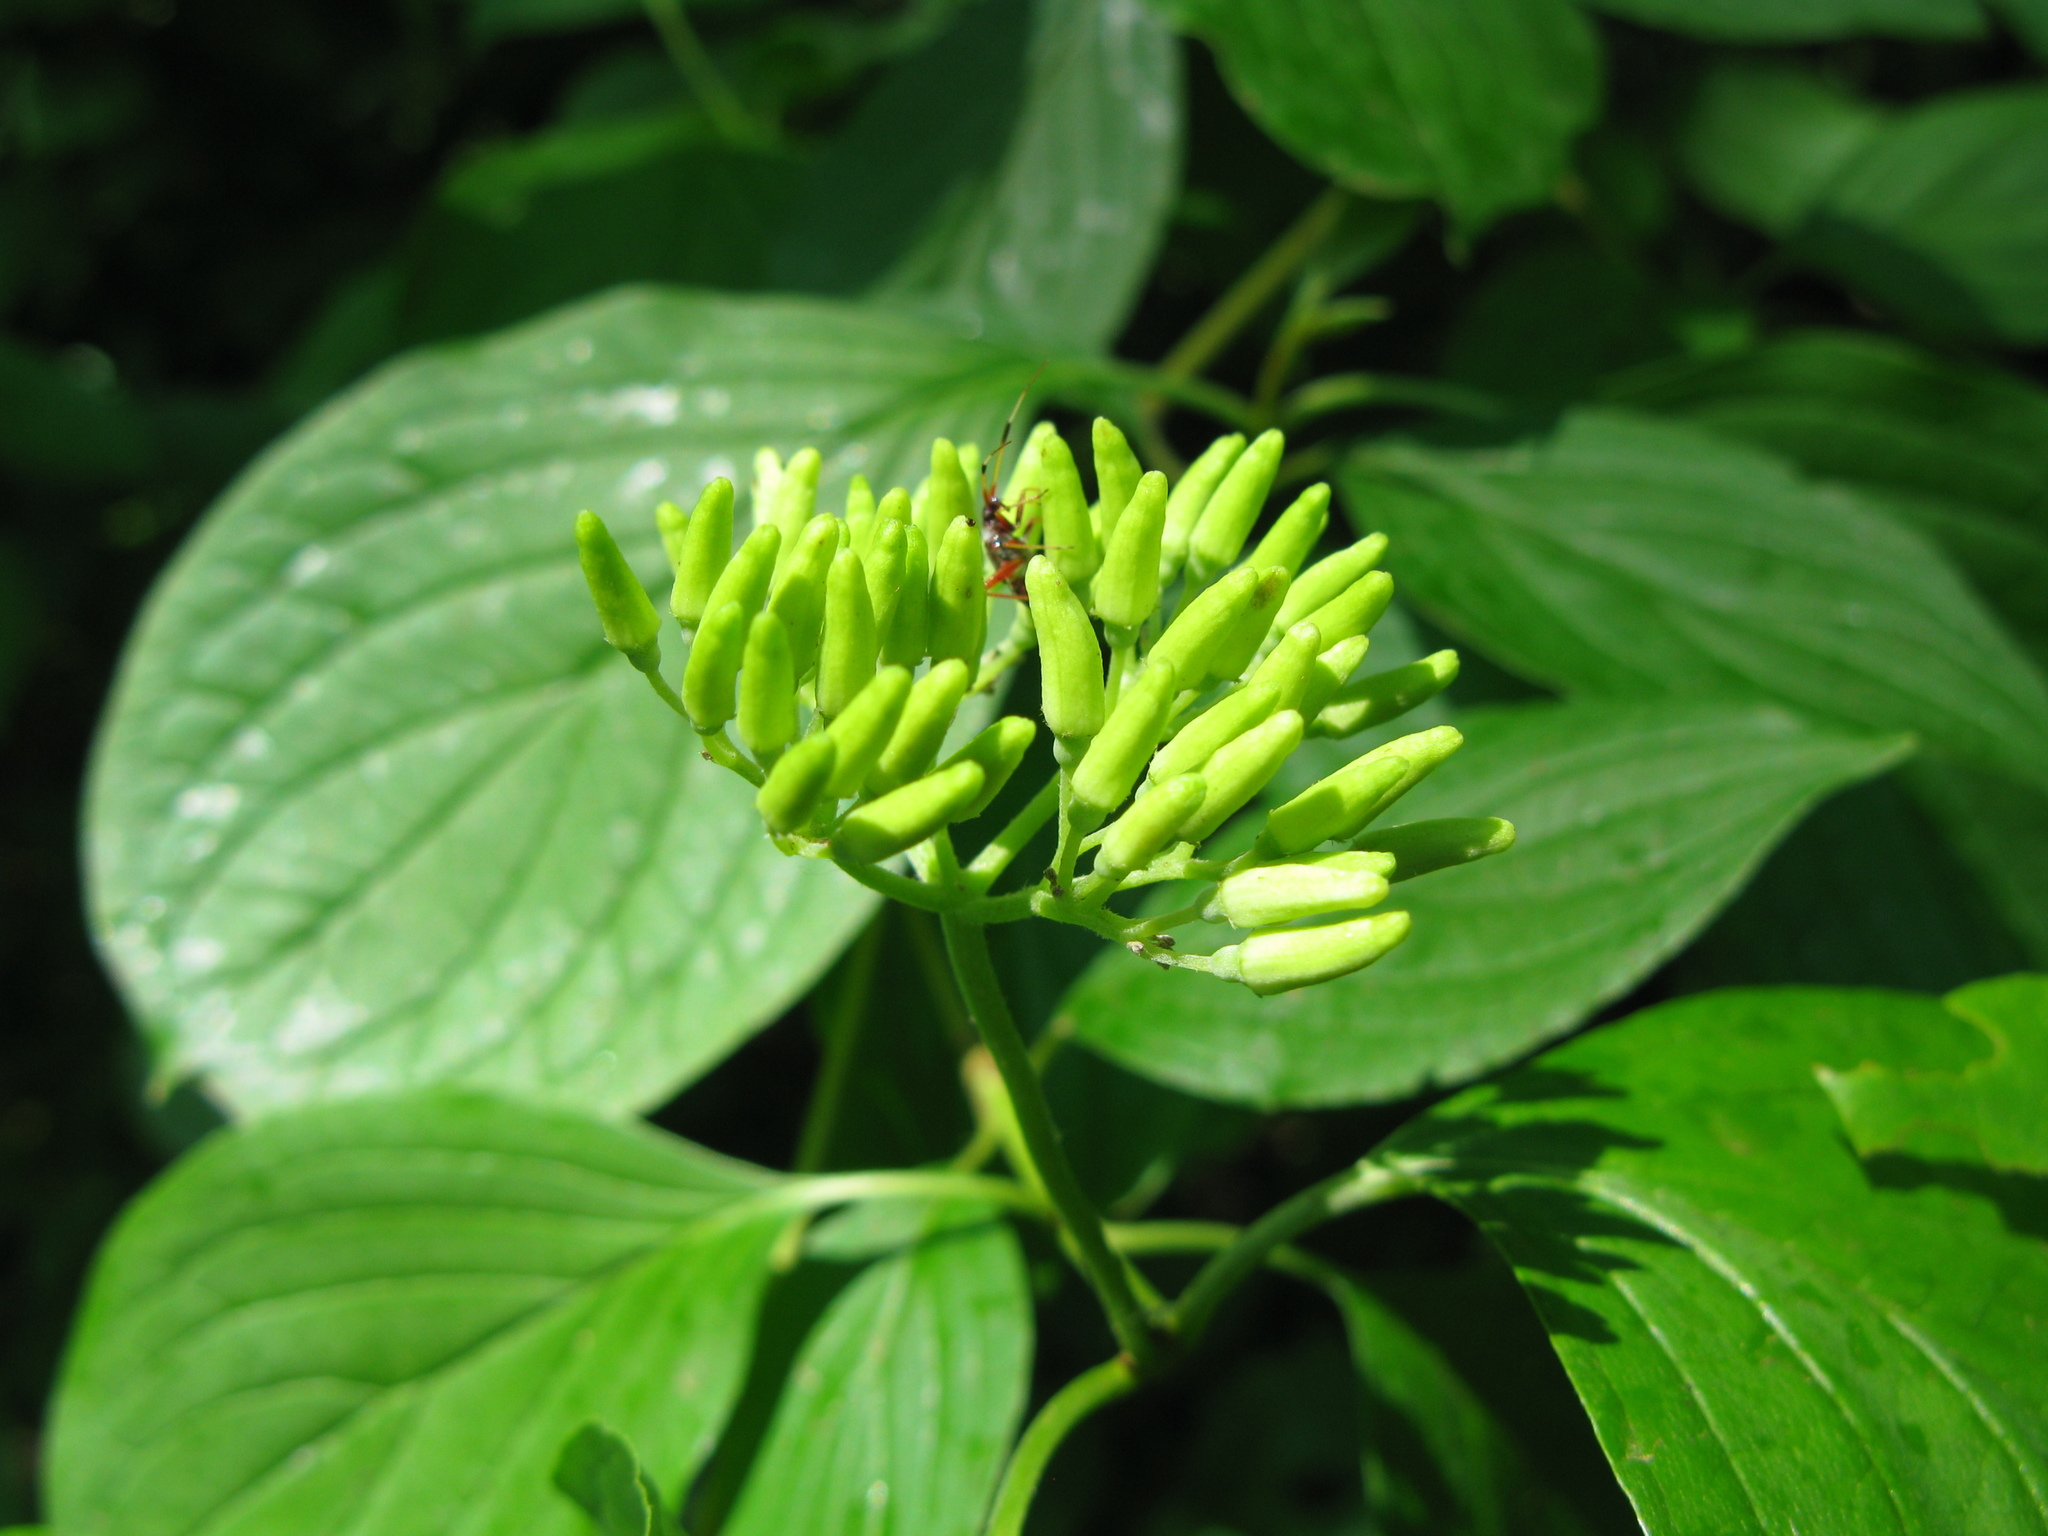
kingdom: Plantae
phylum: Tracheophyta
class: Magnoliopsida
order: Cornales
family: Cornaceae
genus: Cornus
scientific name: Cornus sanguinea
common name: Dogwood
